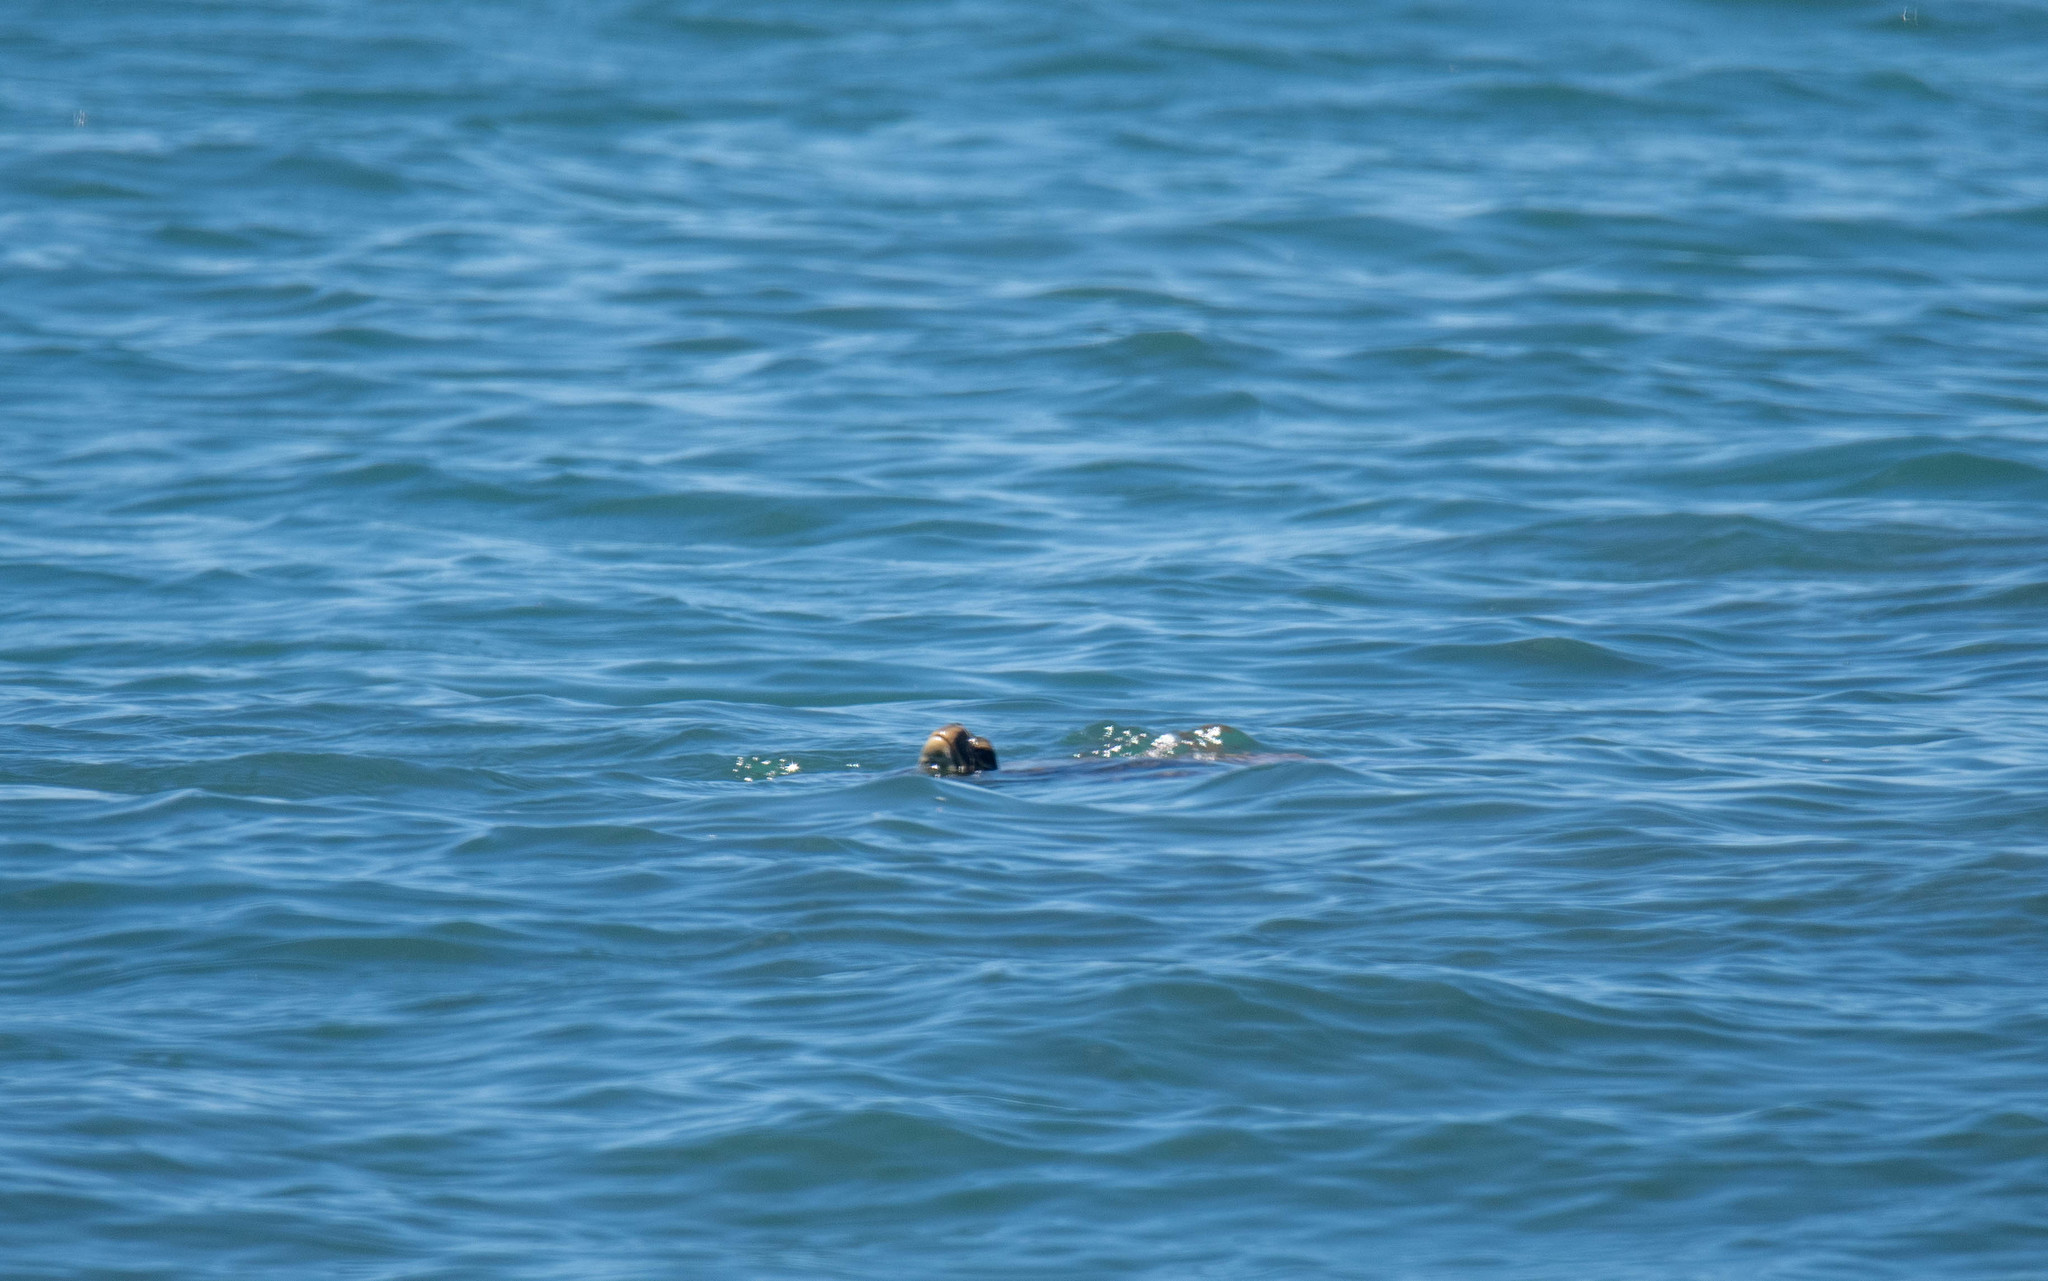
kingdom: Animalia
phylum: Chordata
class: Testudines
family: Cheloniidae
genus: Chelonia
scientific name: Chelonia mydas
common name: Green turtle
